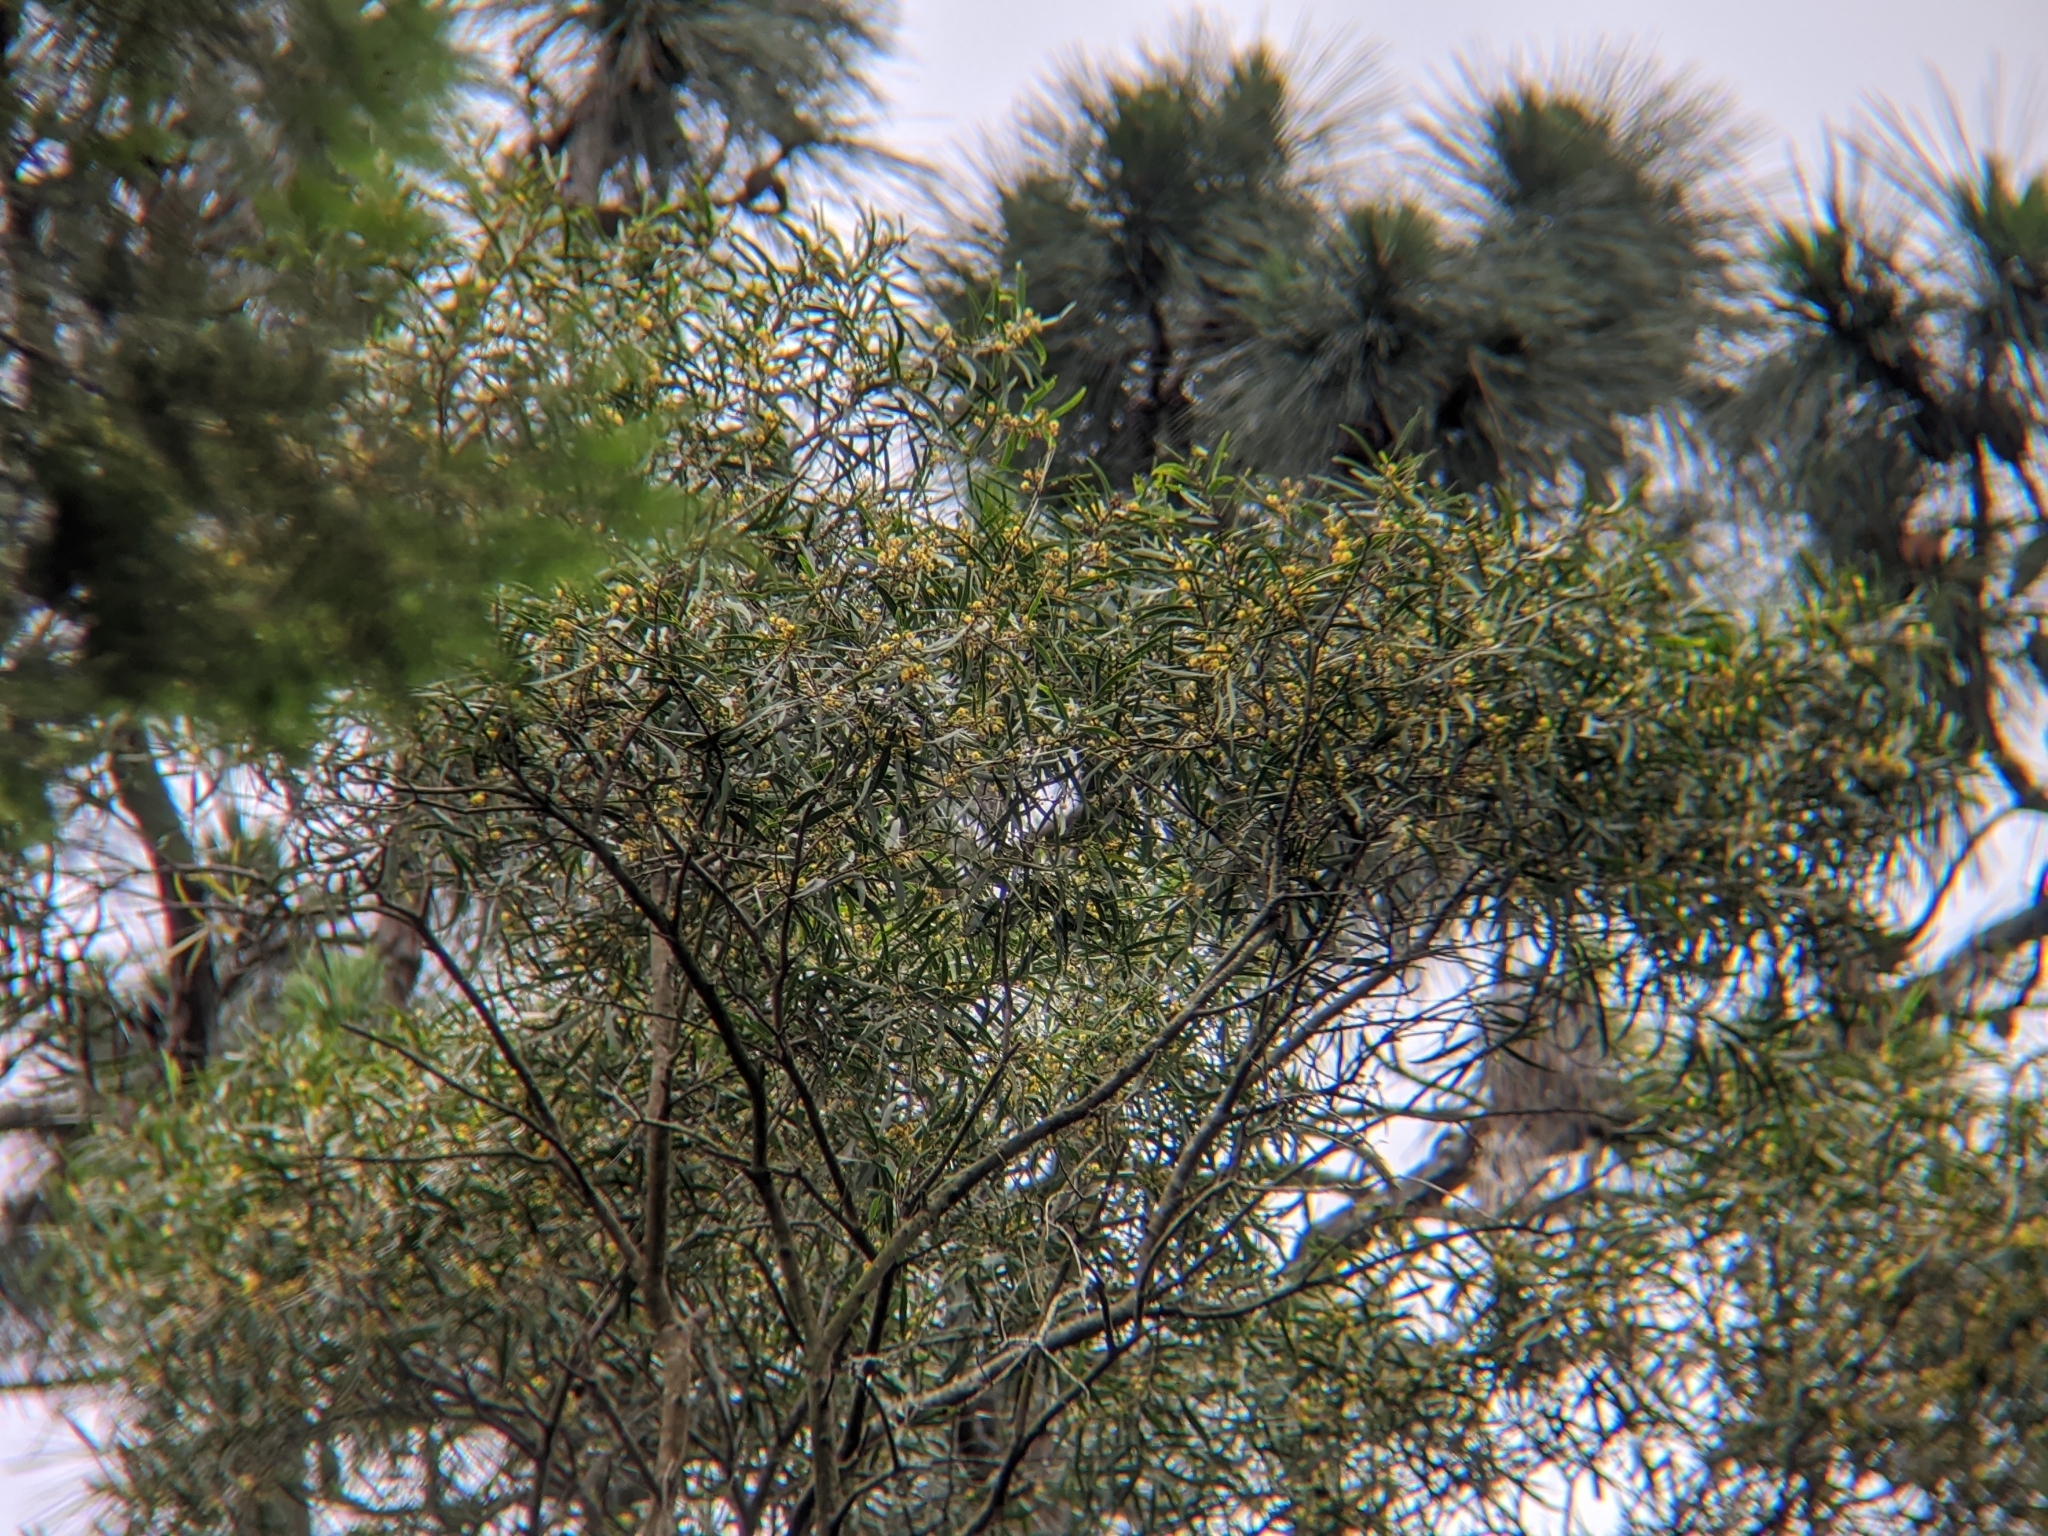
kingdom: Plantae
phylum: Tracheophyta
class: Magnoliopsida
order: Fabales
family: Fabaceae
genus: Acacia
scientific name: Acacia confusa
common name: Formosan koa
